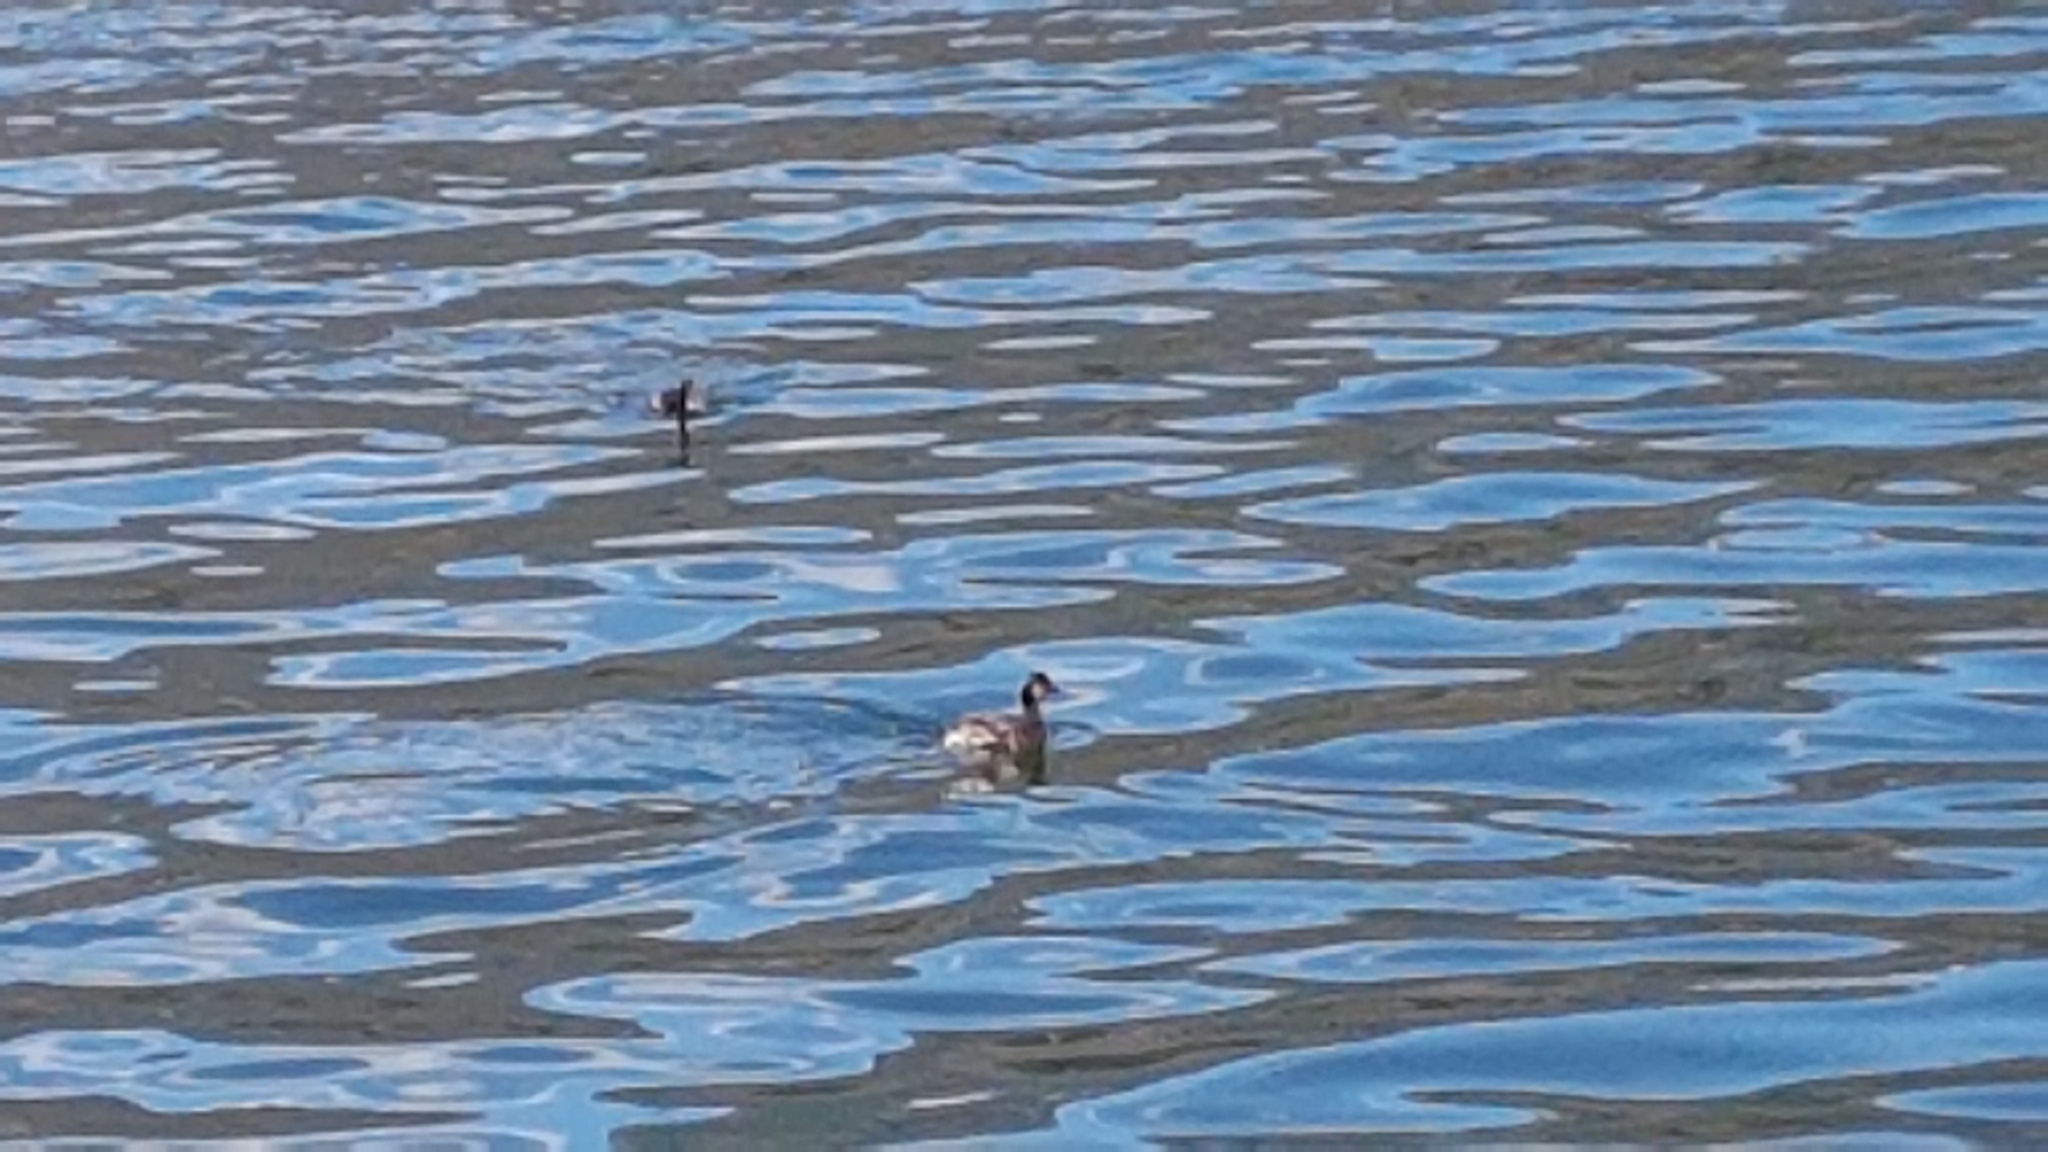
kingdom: Animalia
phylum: Chordata
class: Aves
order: Podicipediformes
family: Podicipedidae
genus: Podiceps
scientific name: Podiceps nigricollis
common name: Black-necked grebe
